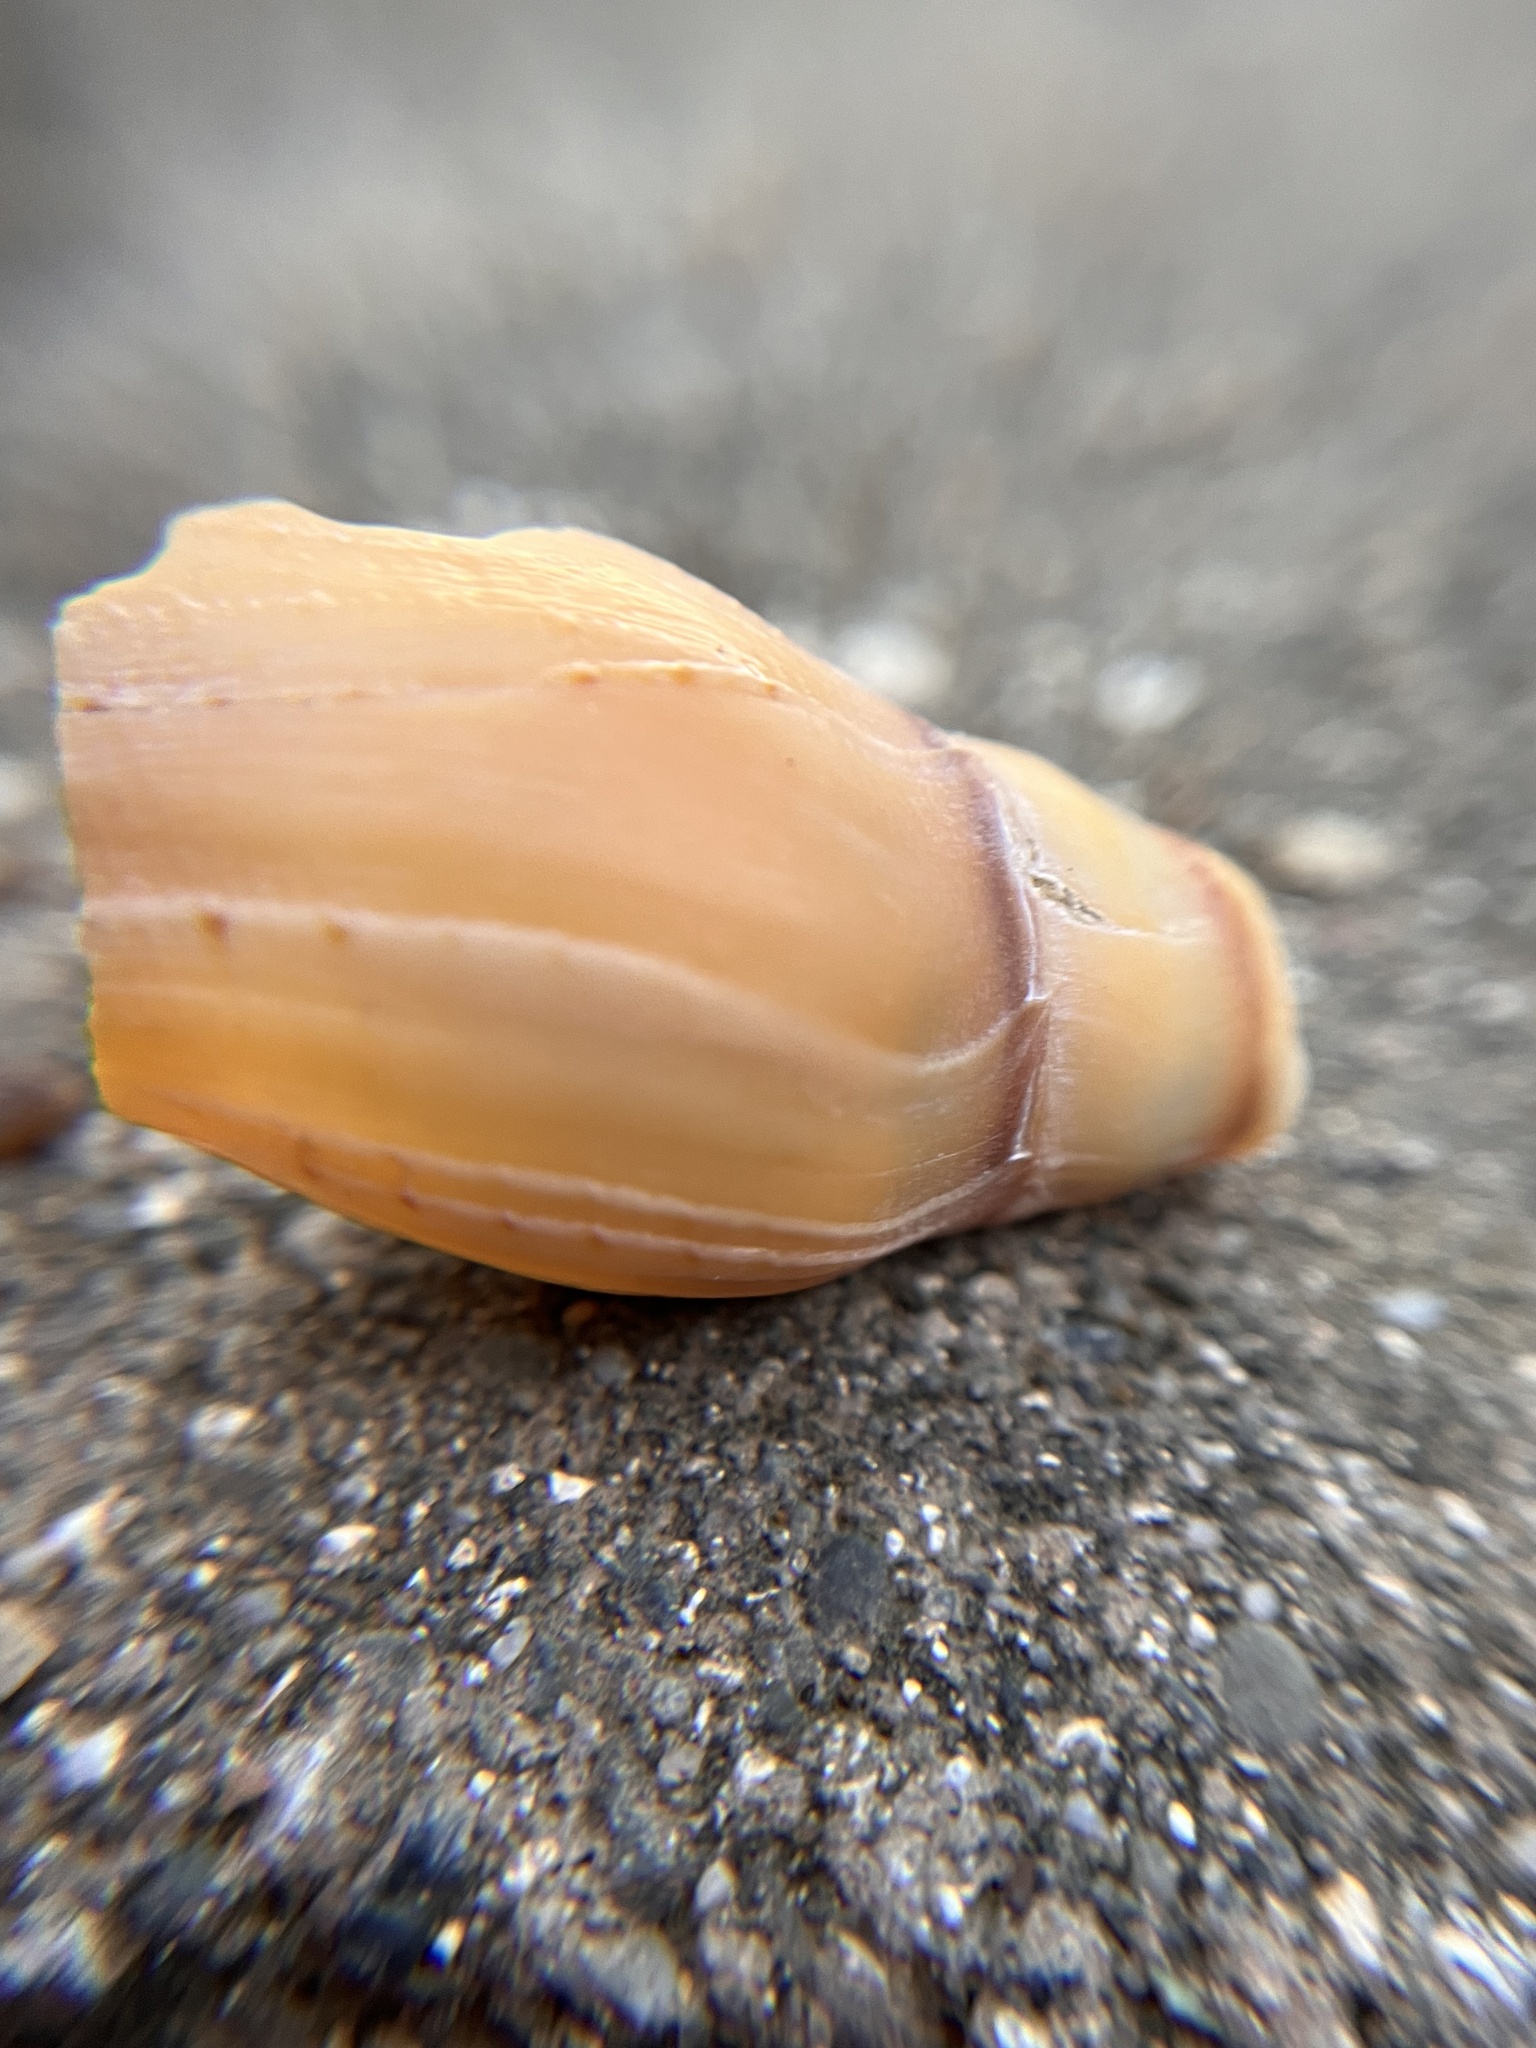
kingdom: Animalia
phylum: Mollusca
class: Gastropoda
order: Neogastropoda
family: Pseudomelatomidae
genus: Megasurcula
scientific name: Megasurcula carpenteriana
